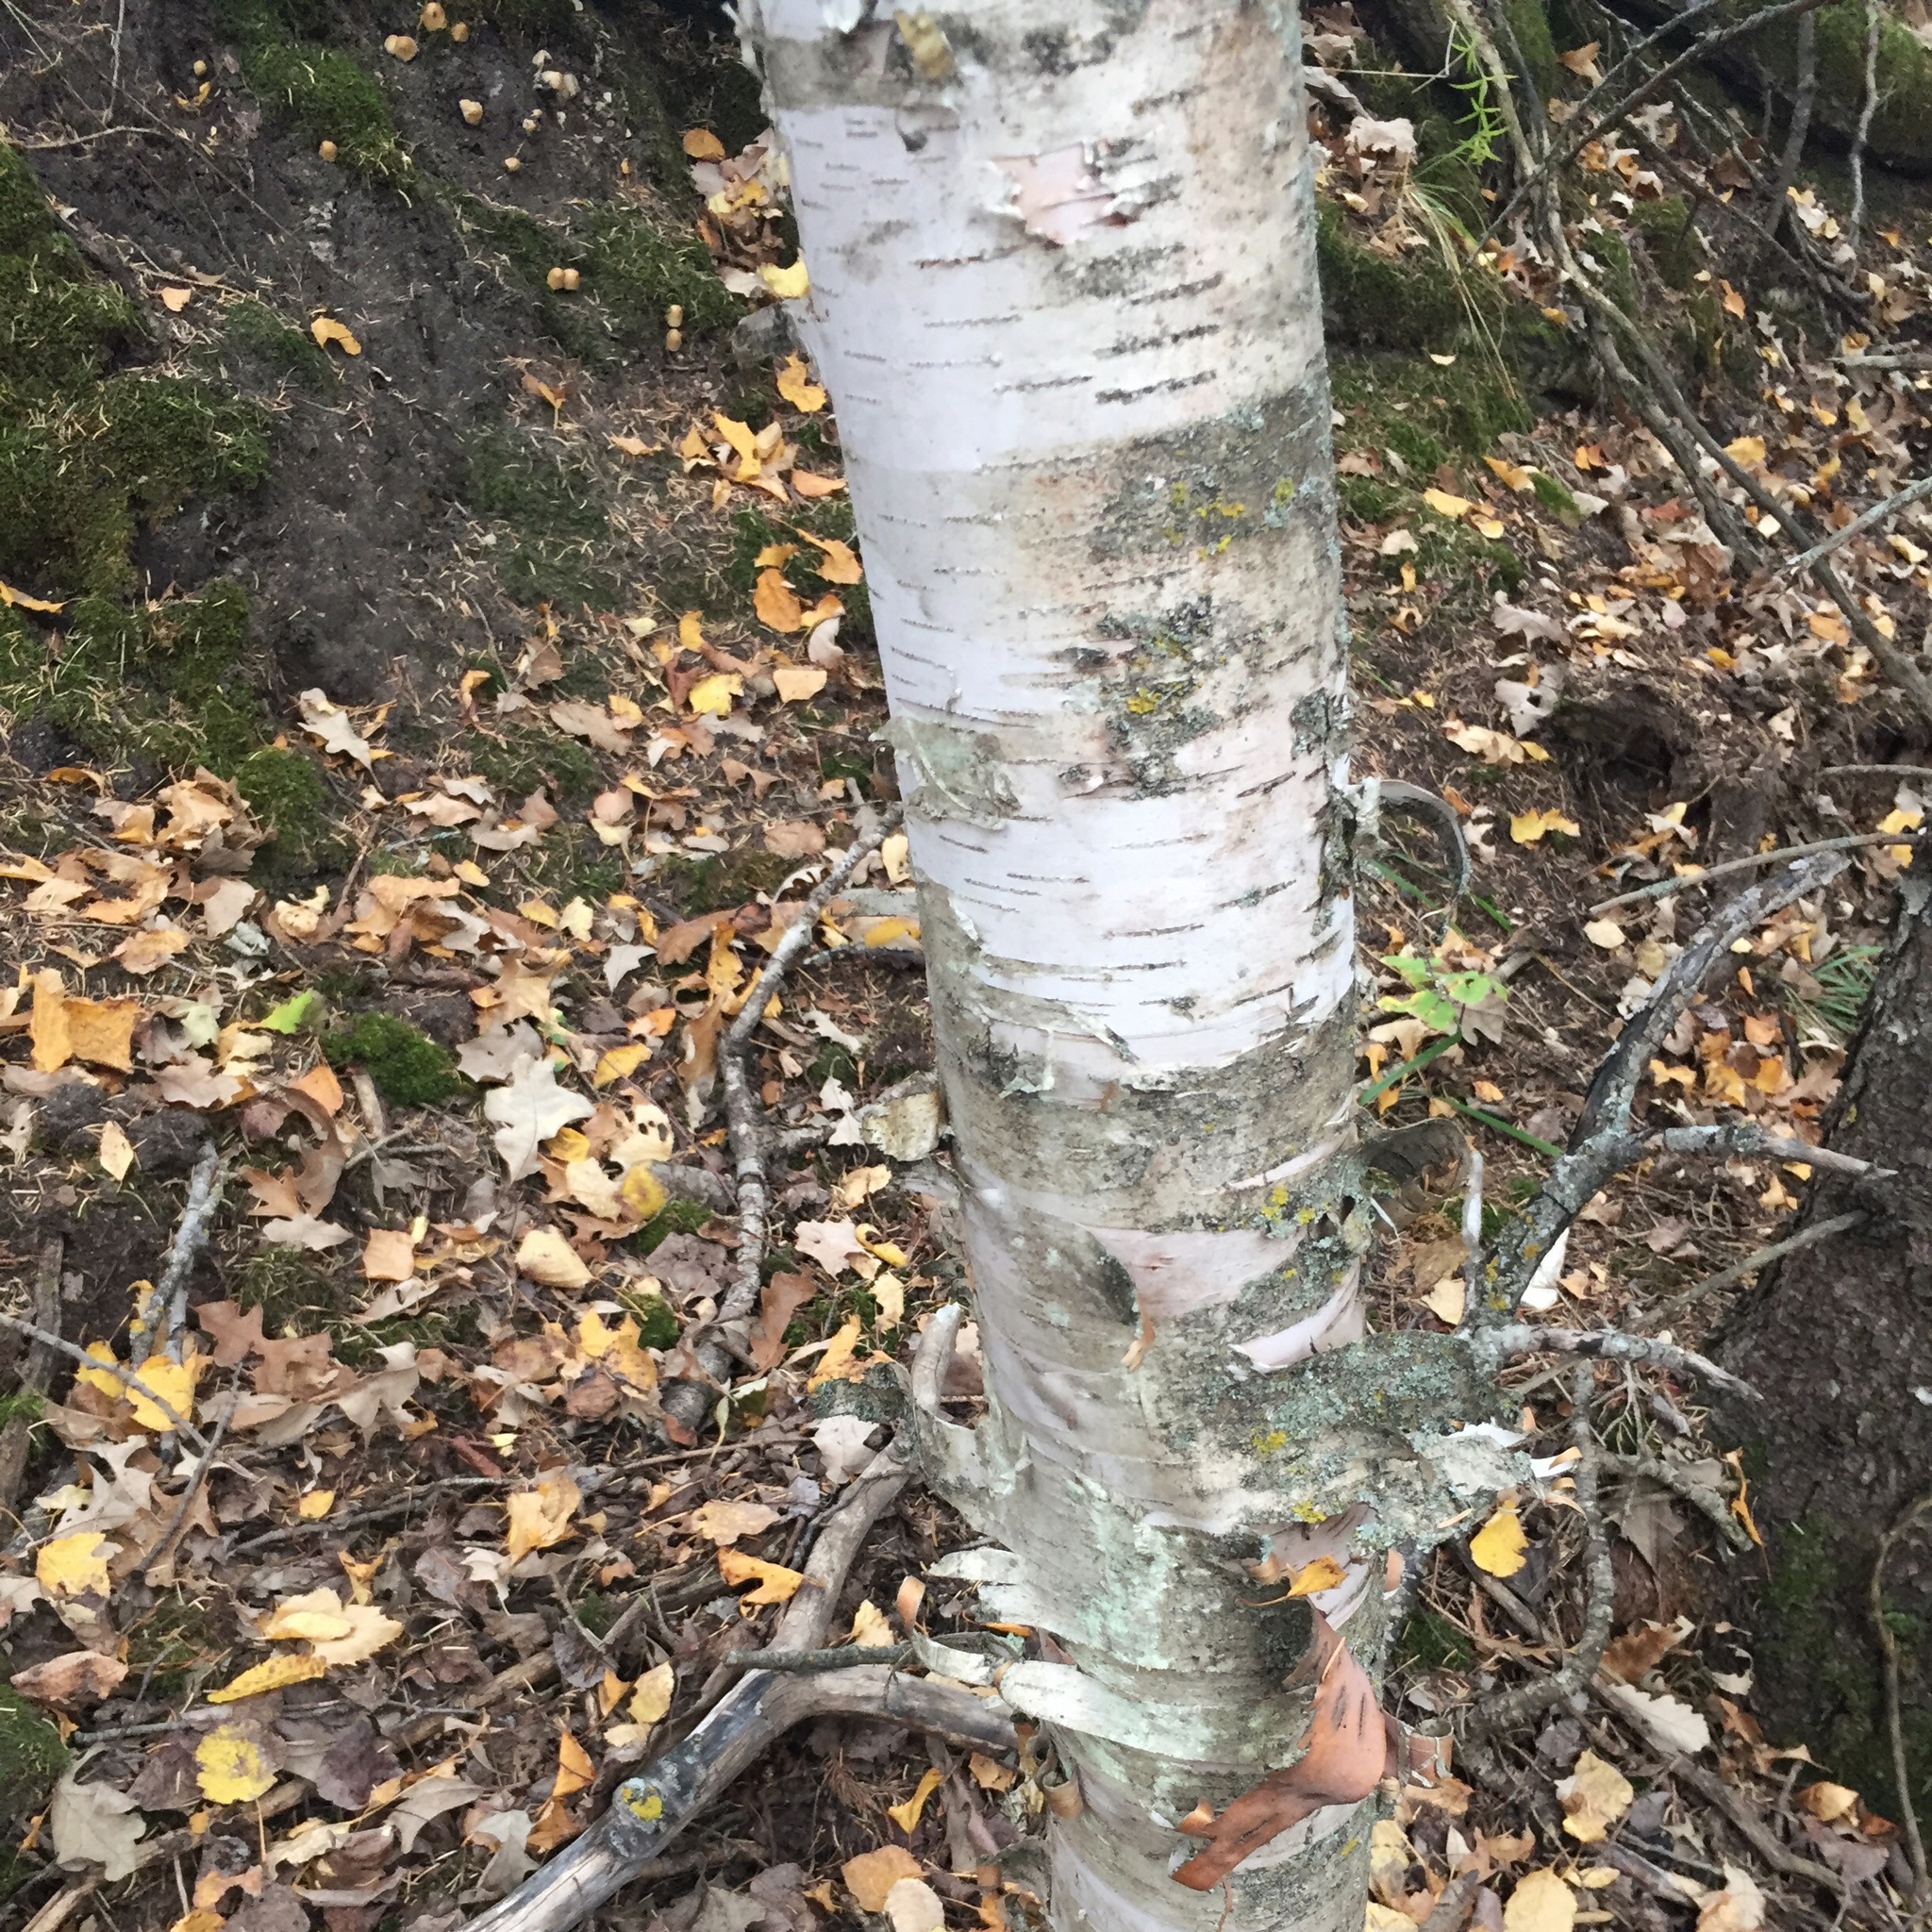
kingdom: Plantae
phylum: Tracheophyta
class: Magnoliopsida
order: Fagales
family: Betulaceae
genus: Betula
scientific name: Betula papyrifera
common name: Paper birch
